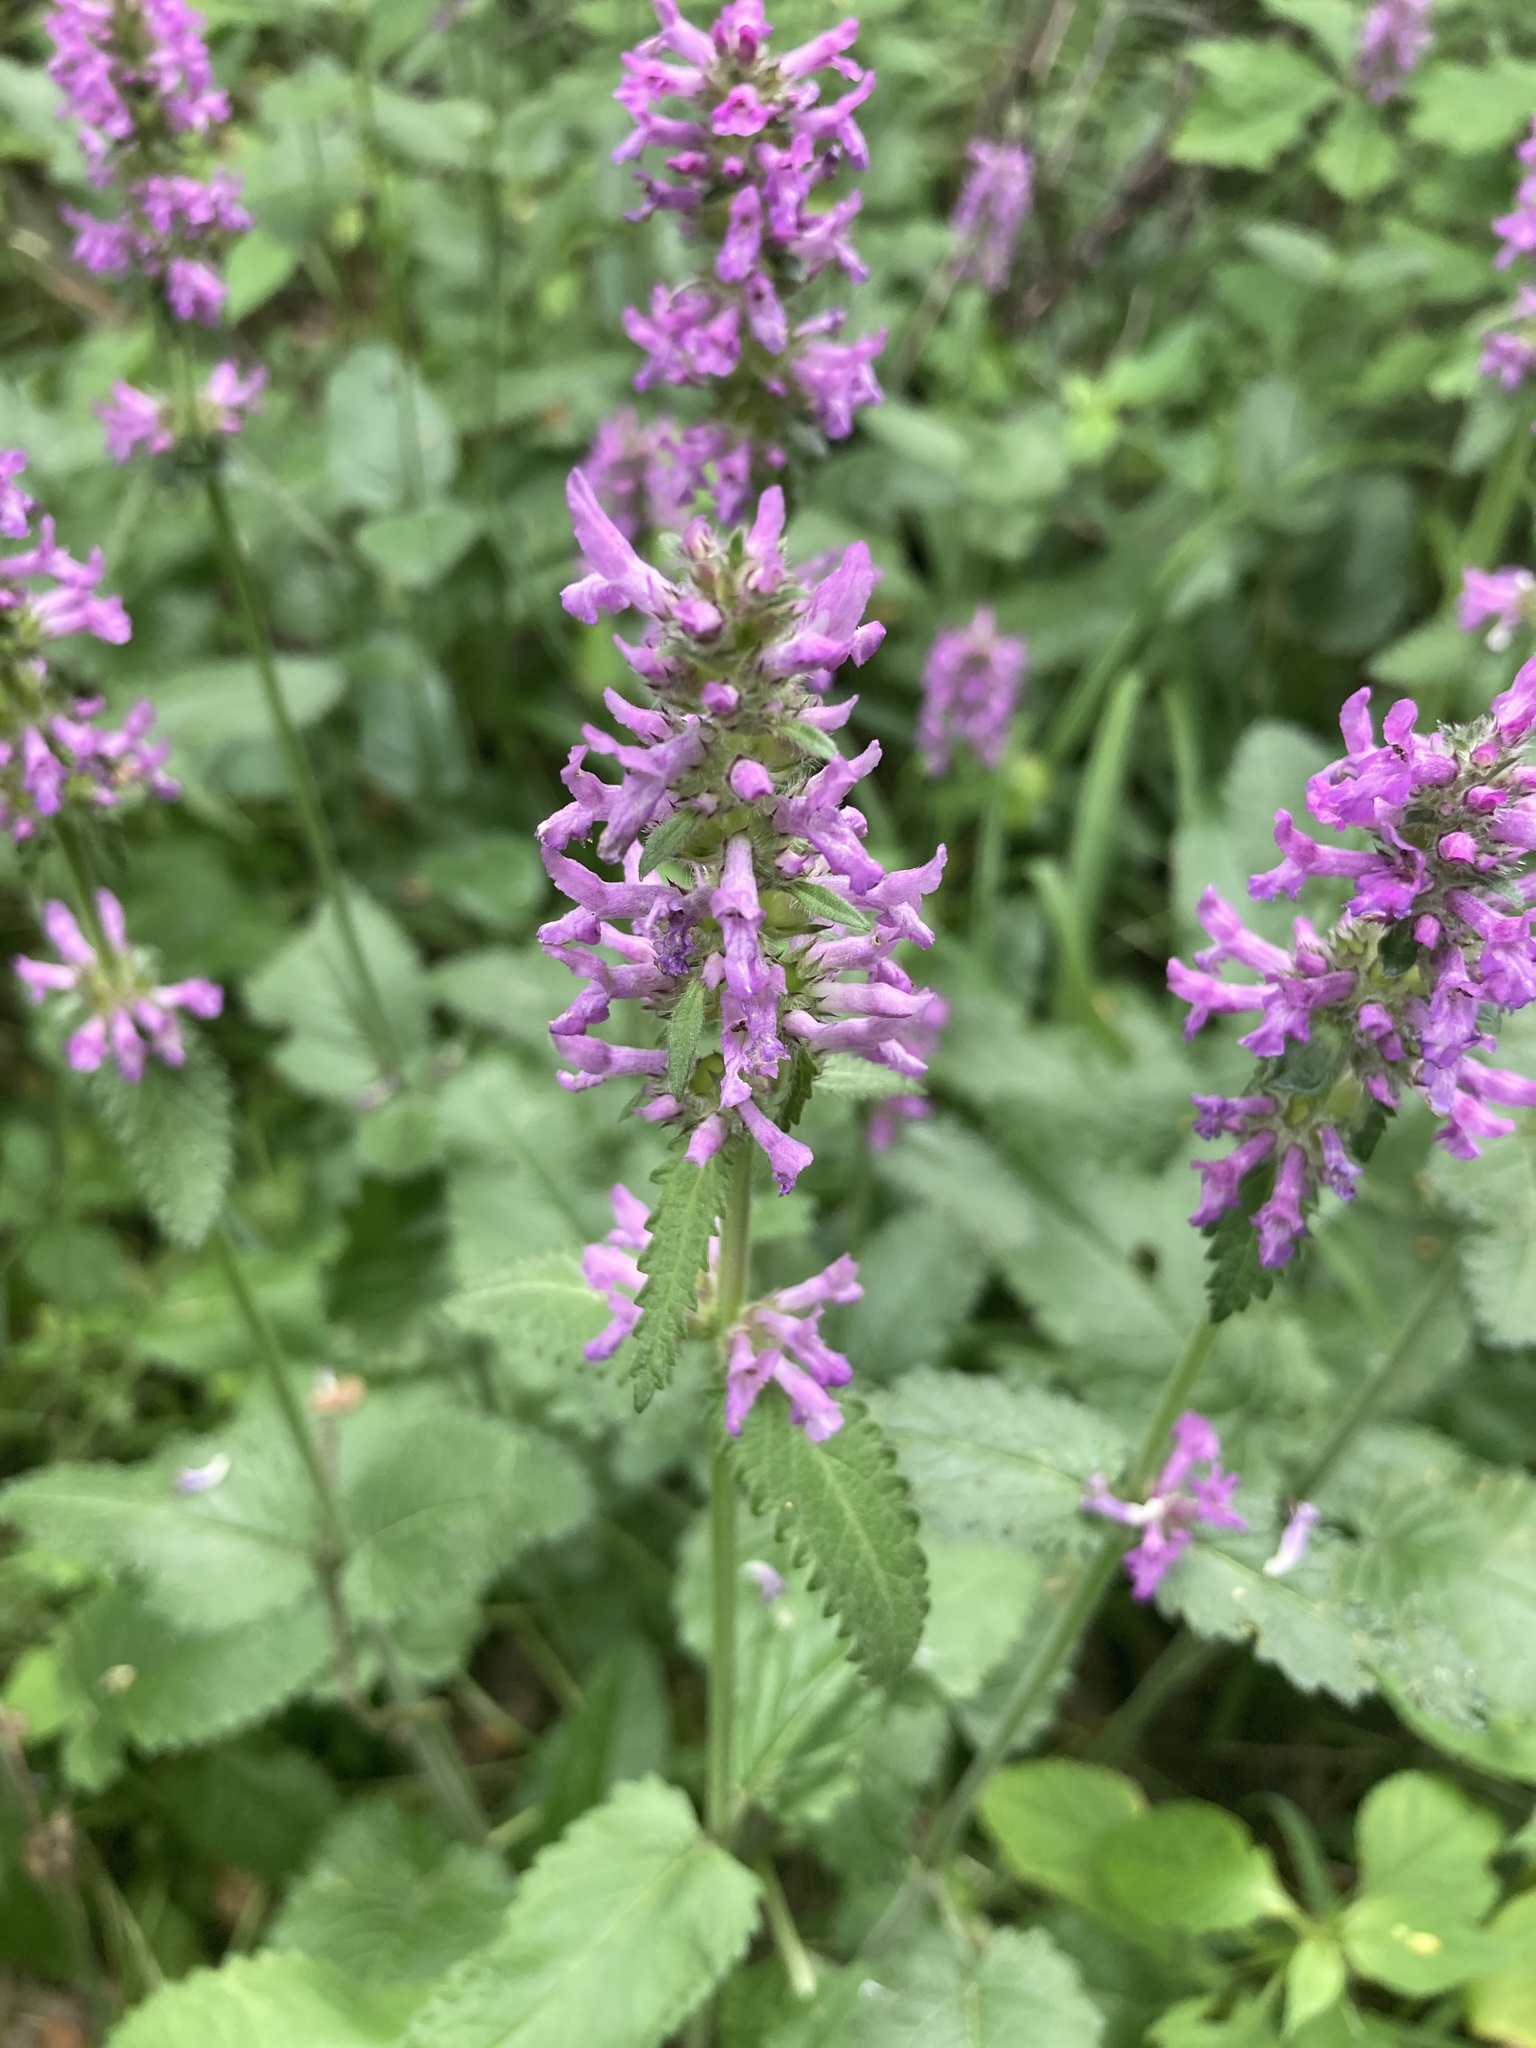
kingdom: Plantae
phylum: Tracheophyta
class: Magnoliopsida
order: Lamiales
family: Lamiaceae
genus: Betonica
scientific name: Betonica officinalis
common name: Bishop's-wort
